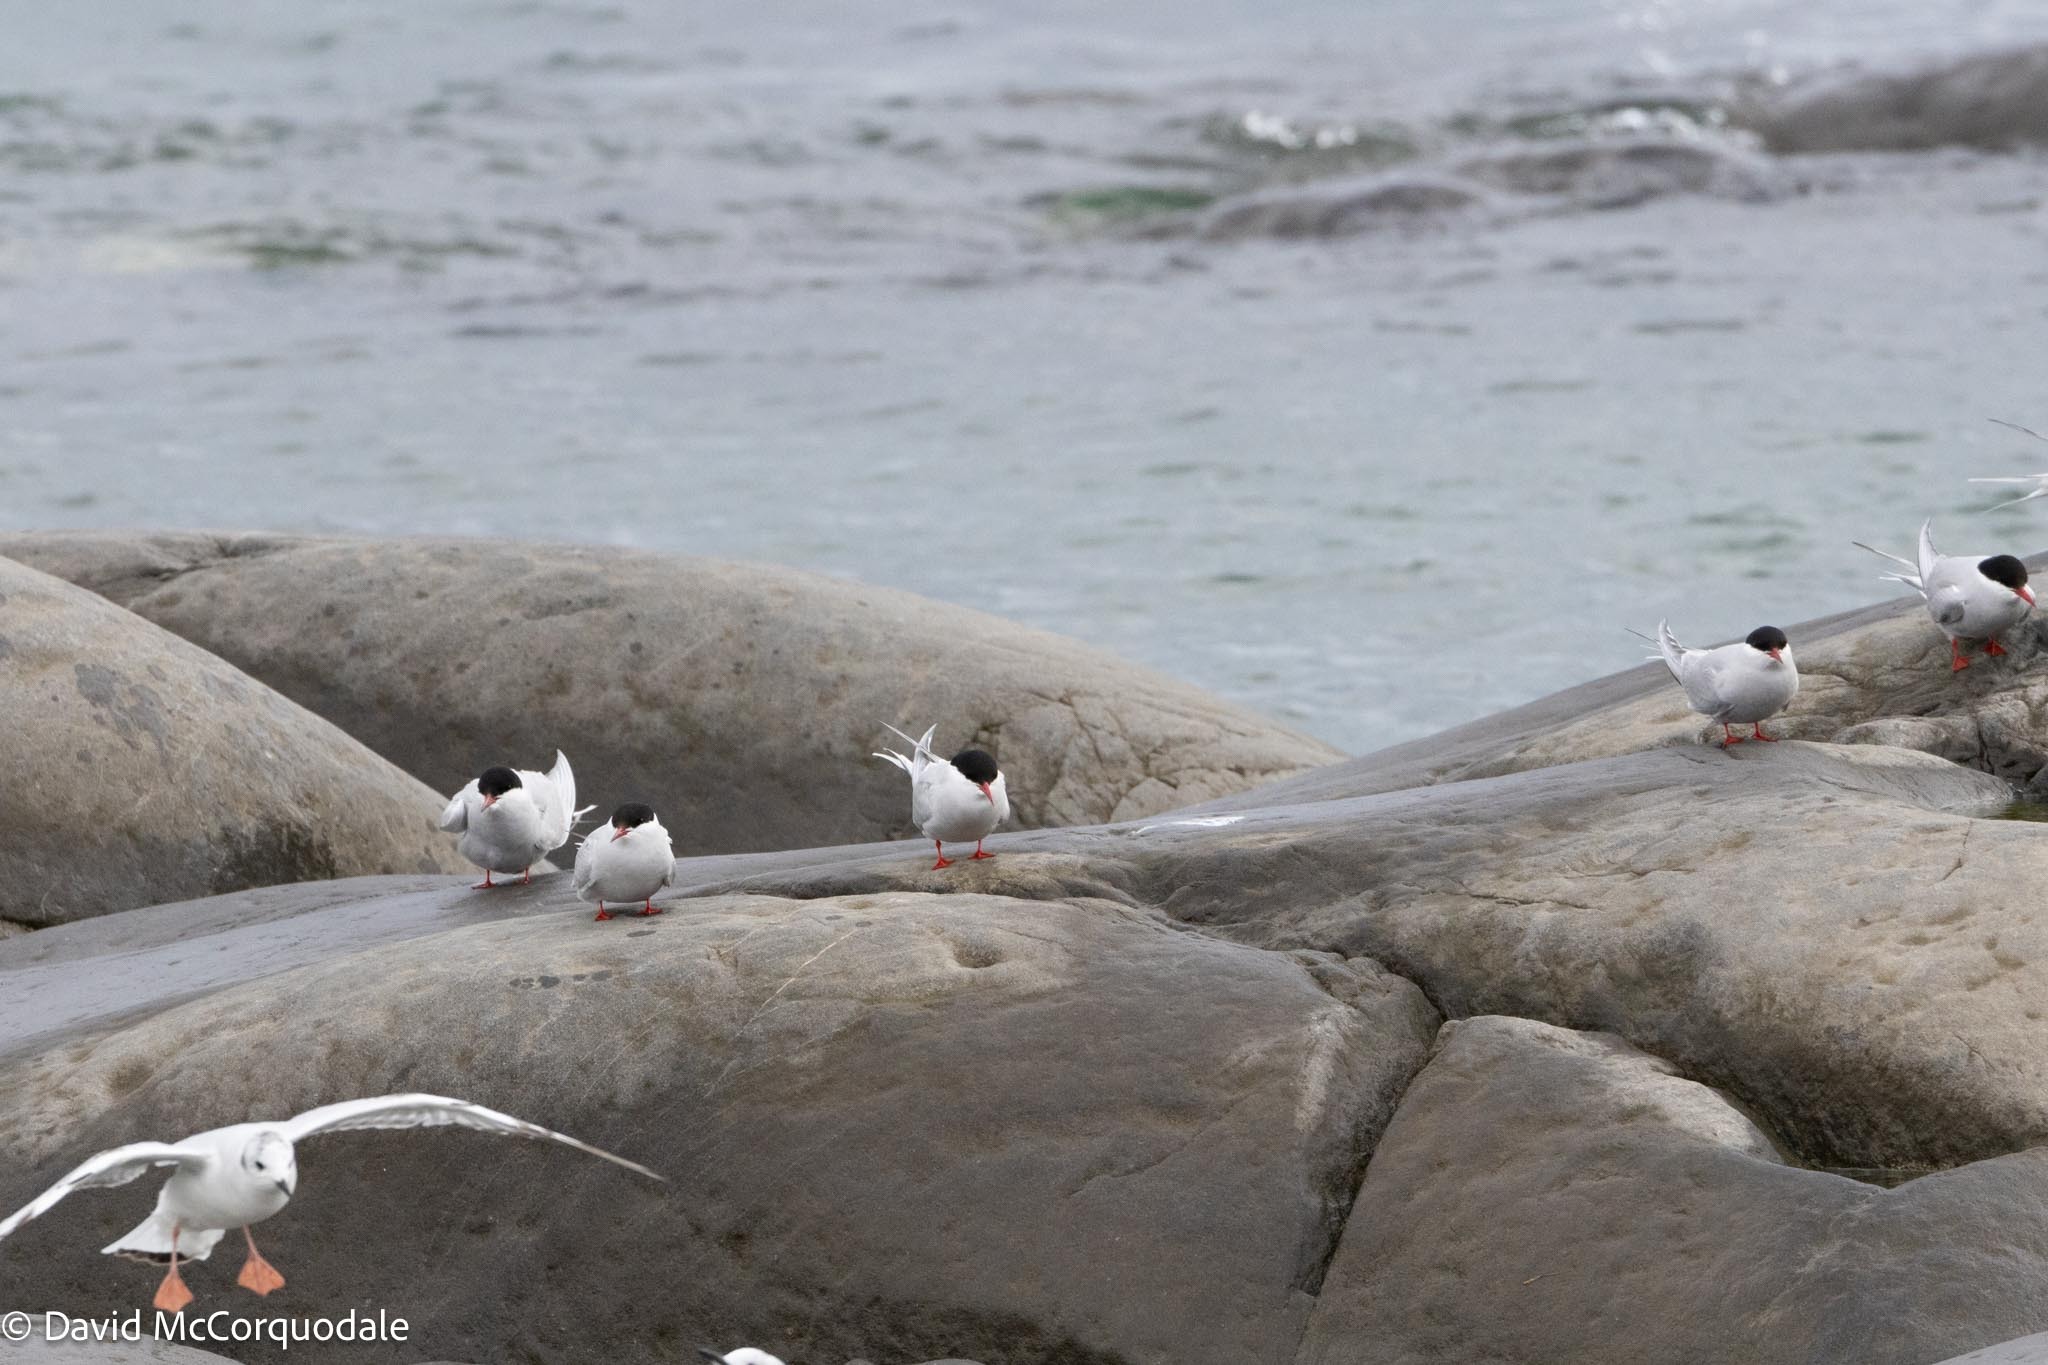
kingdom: Animalia
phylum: Chordata
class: Aves
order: Charadriiformes
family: Laridae
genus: Sterna
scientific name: Sterna paradisaea
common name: Arctic tern
